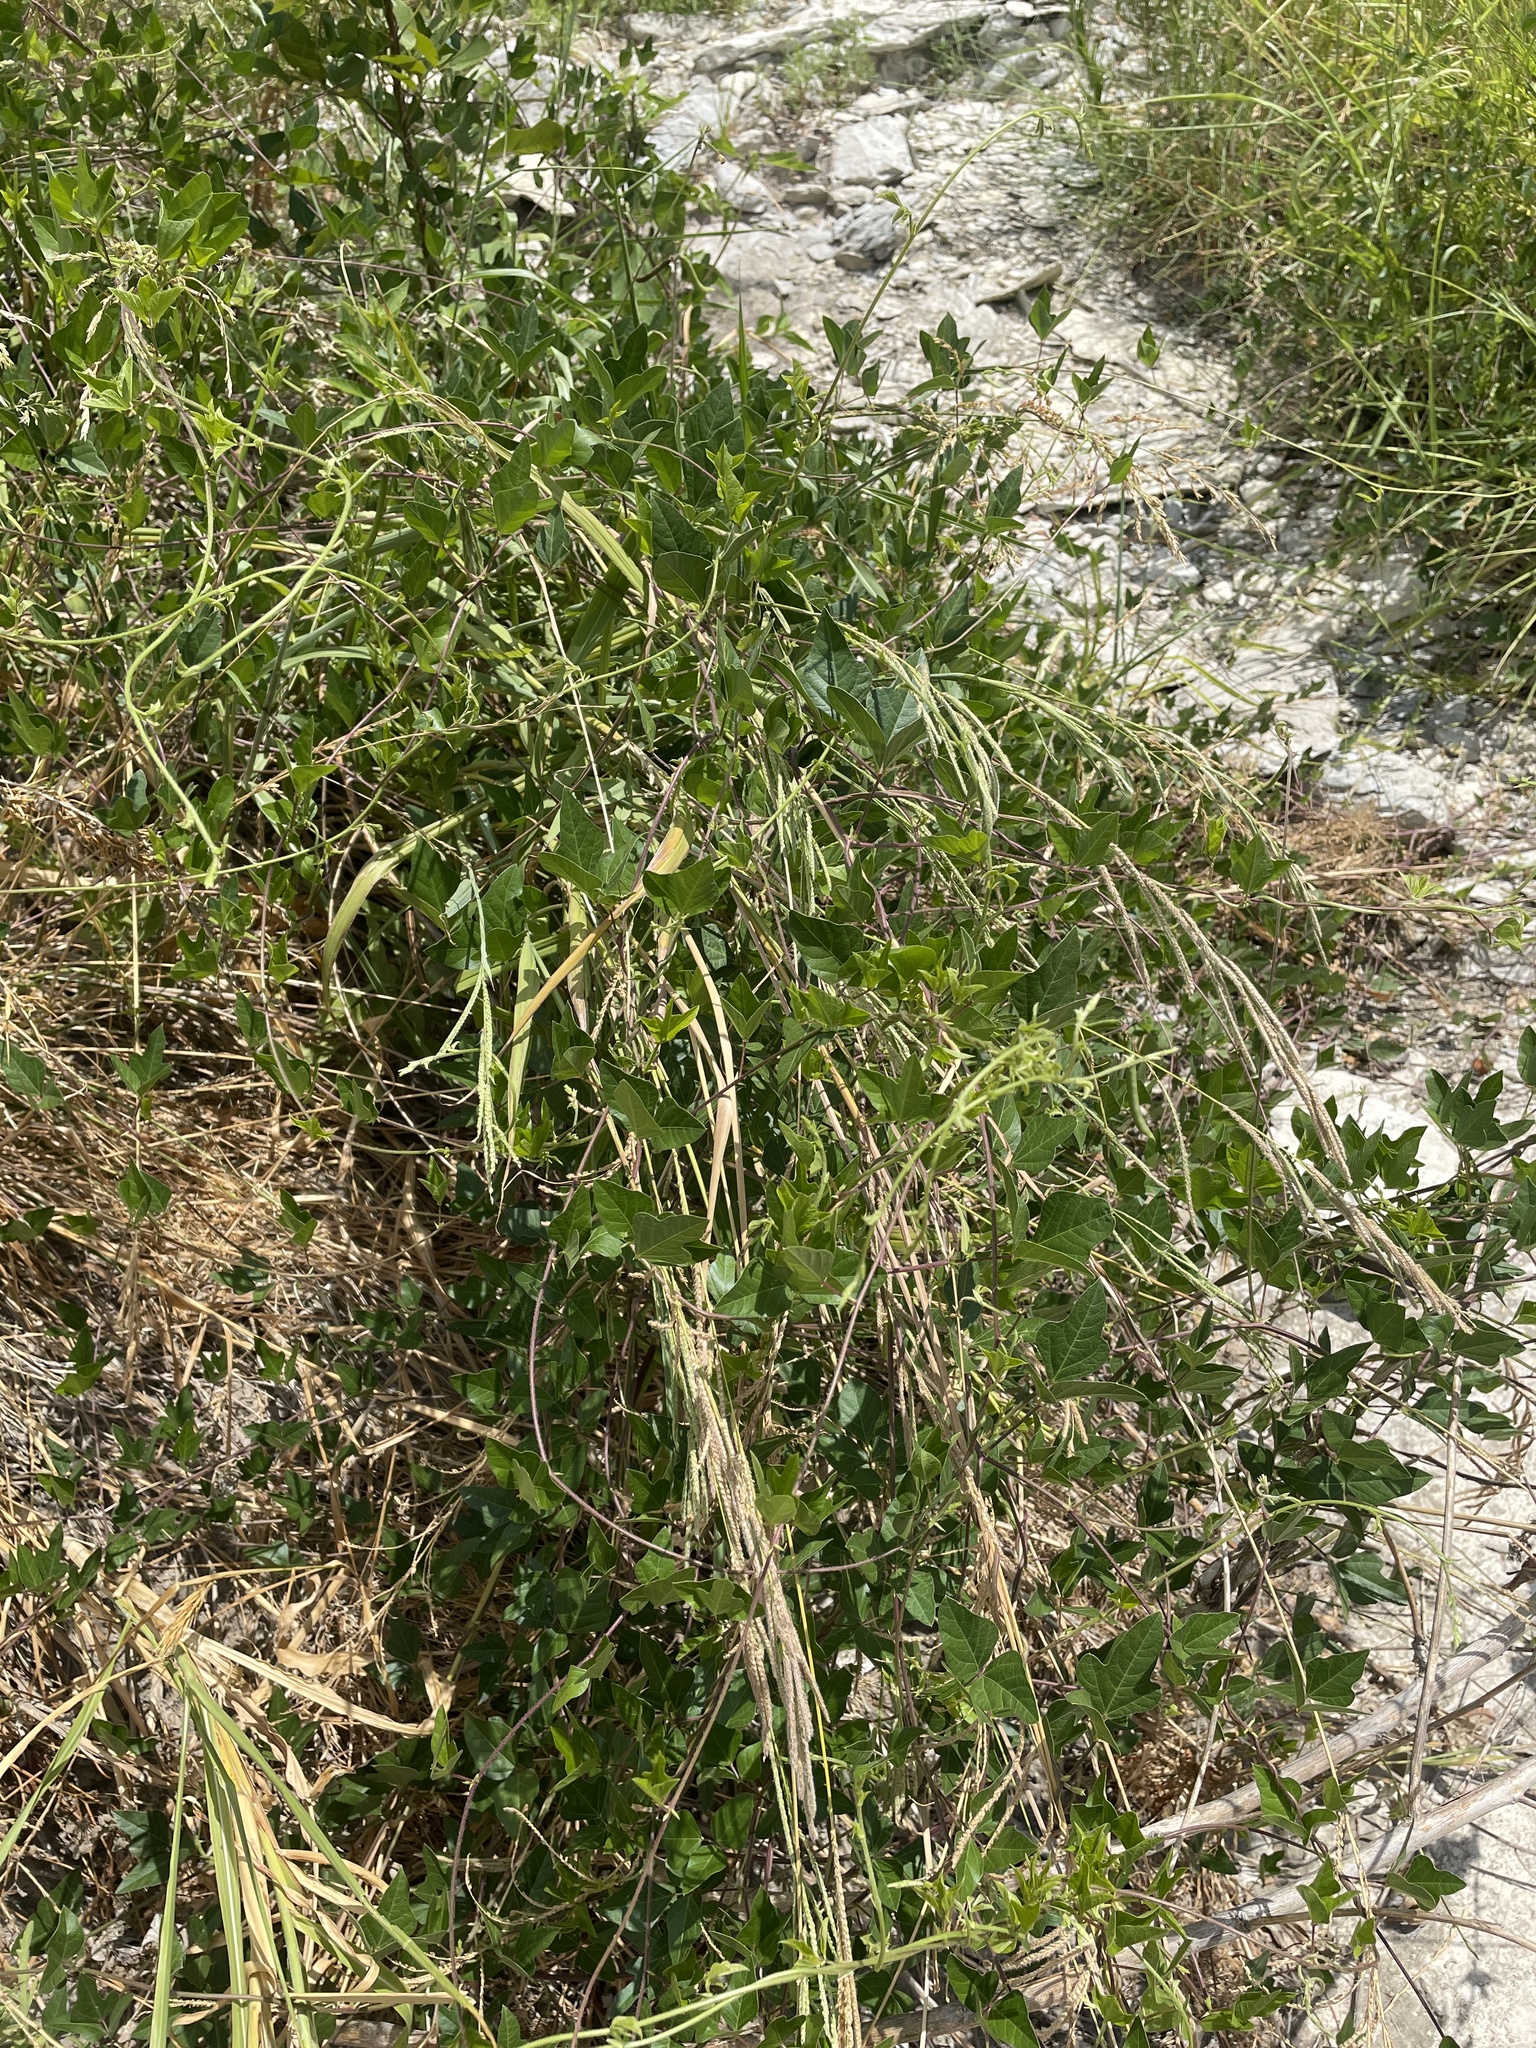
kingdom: Plantae
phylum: Tracheophyta
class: Magnoliopsida
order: Fabales
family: Fabaceae
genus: Strophostyles
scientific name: Strophostyles helvola
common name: Trailing wild bean
